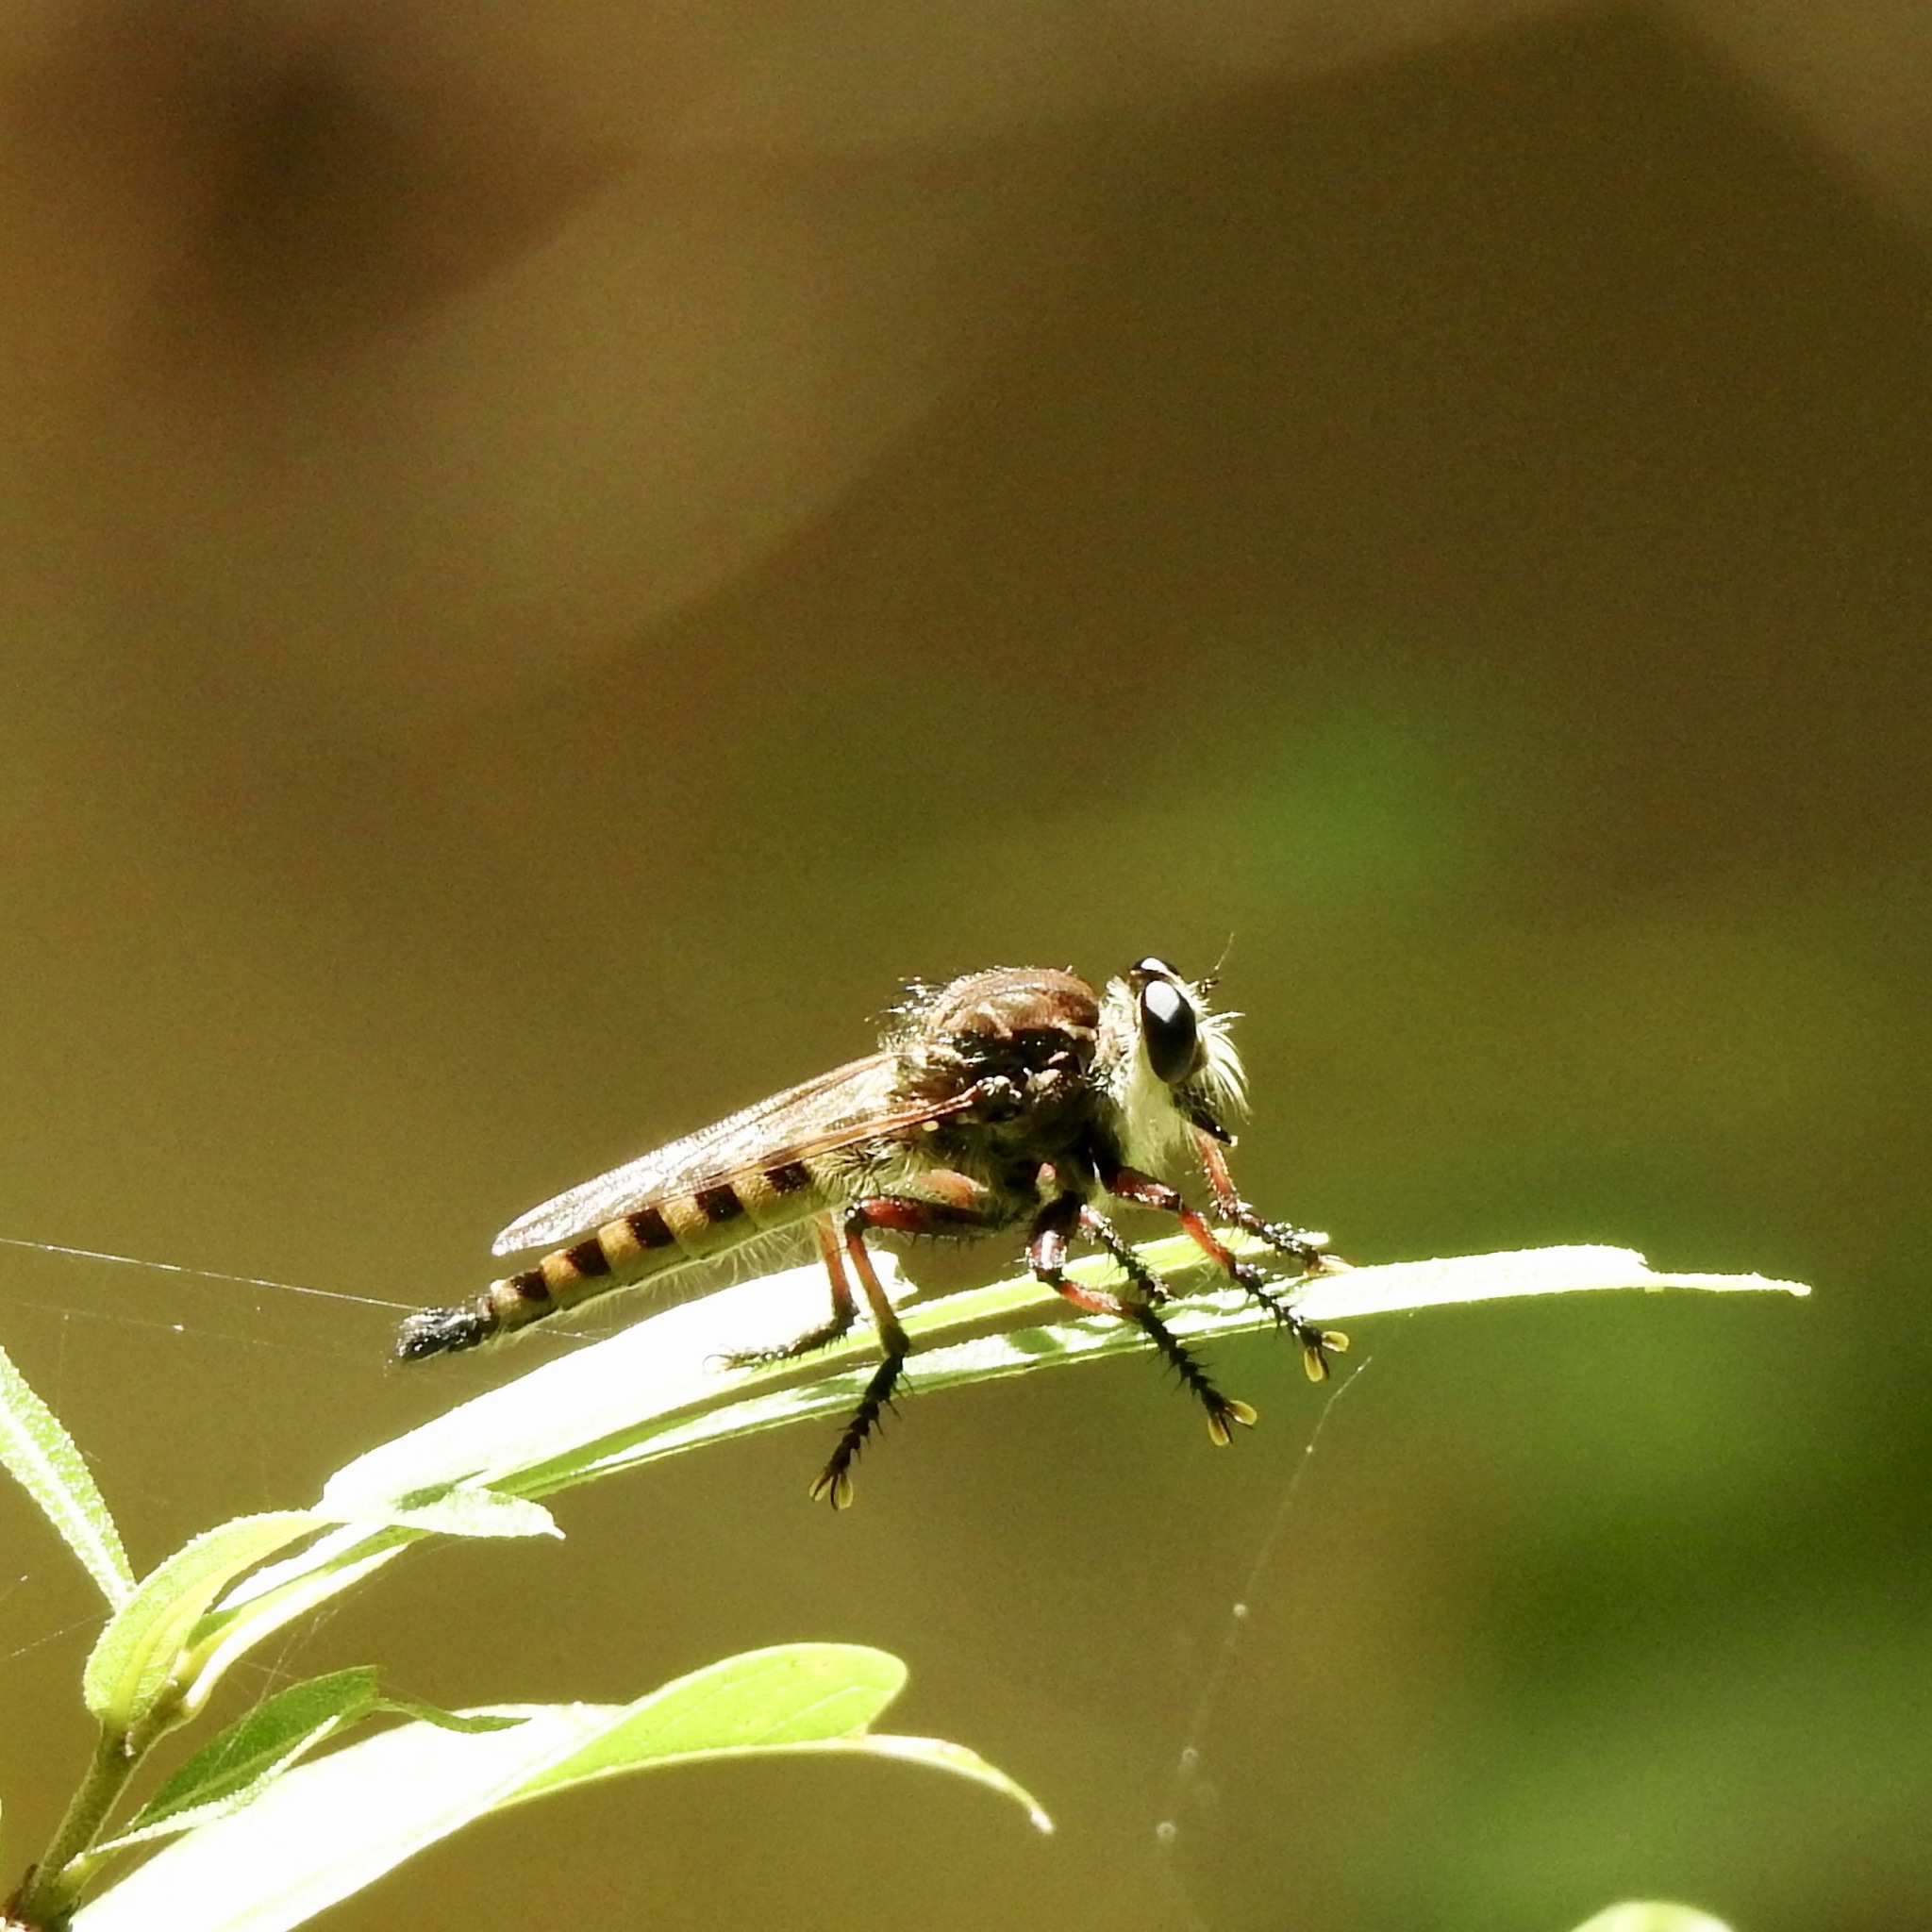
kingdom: Animalia
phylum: Arthropoda
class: Insecta
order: Diptera
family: Asilidae
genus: Promachus
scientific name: Promachus hinei
